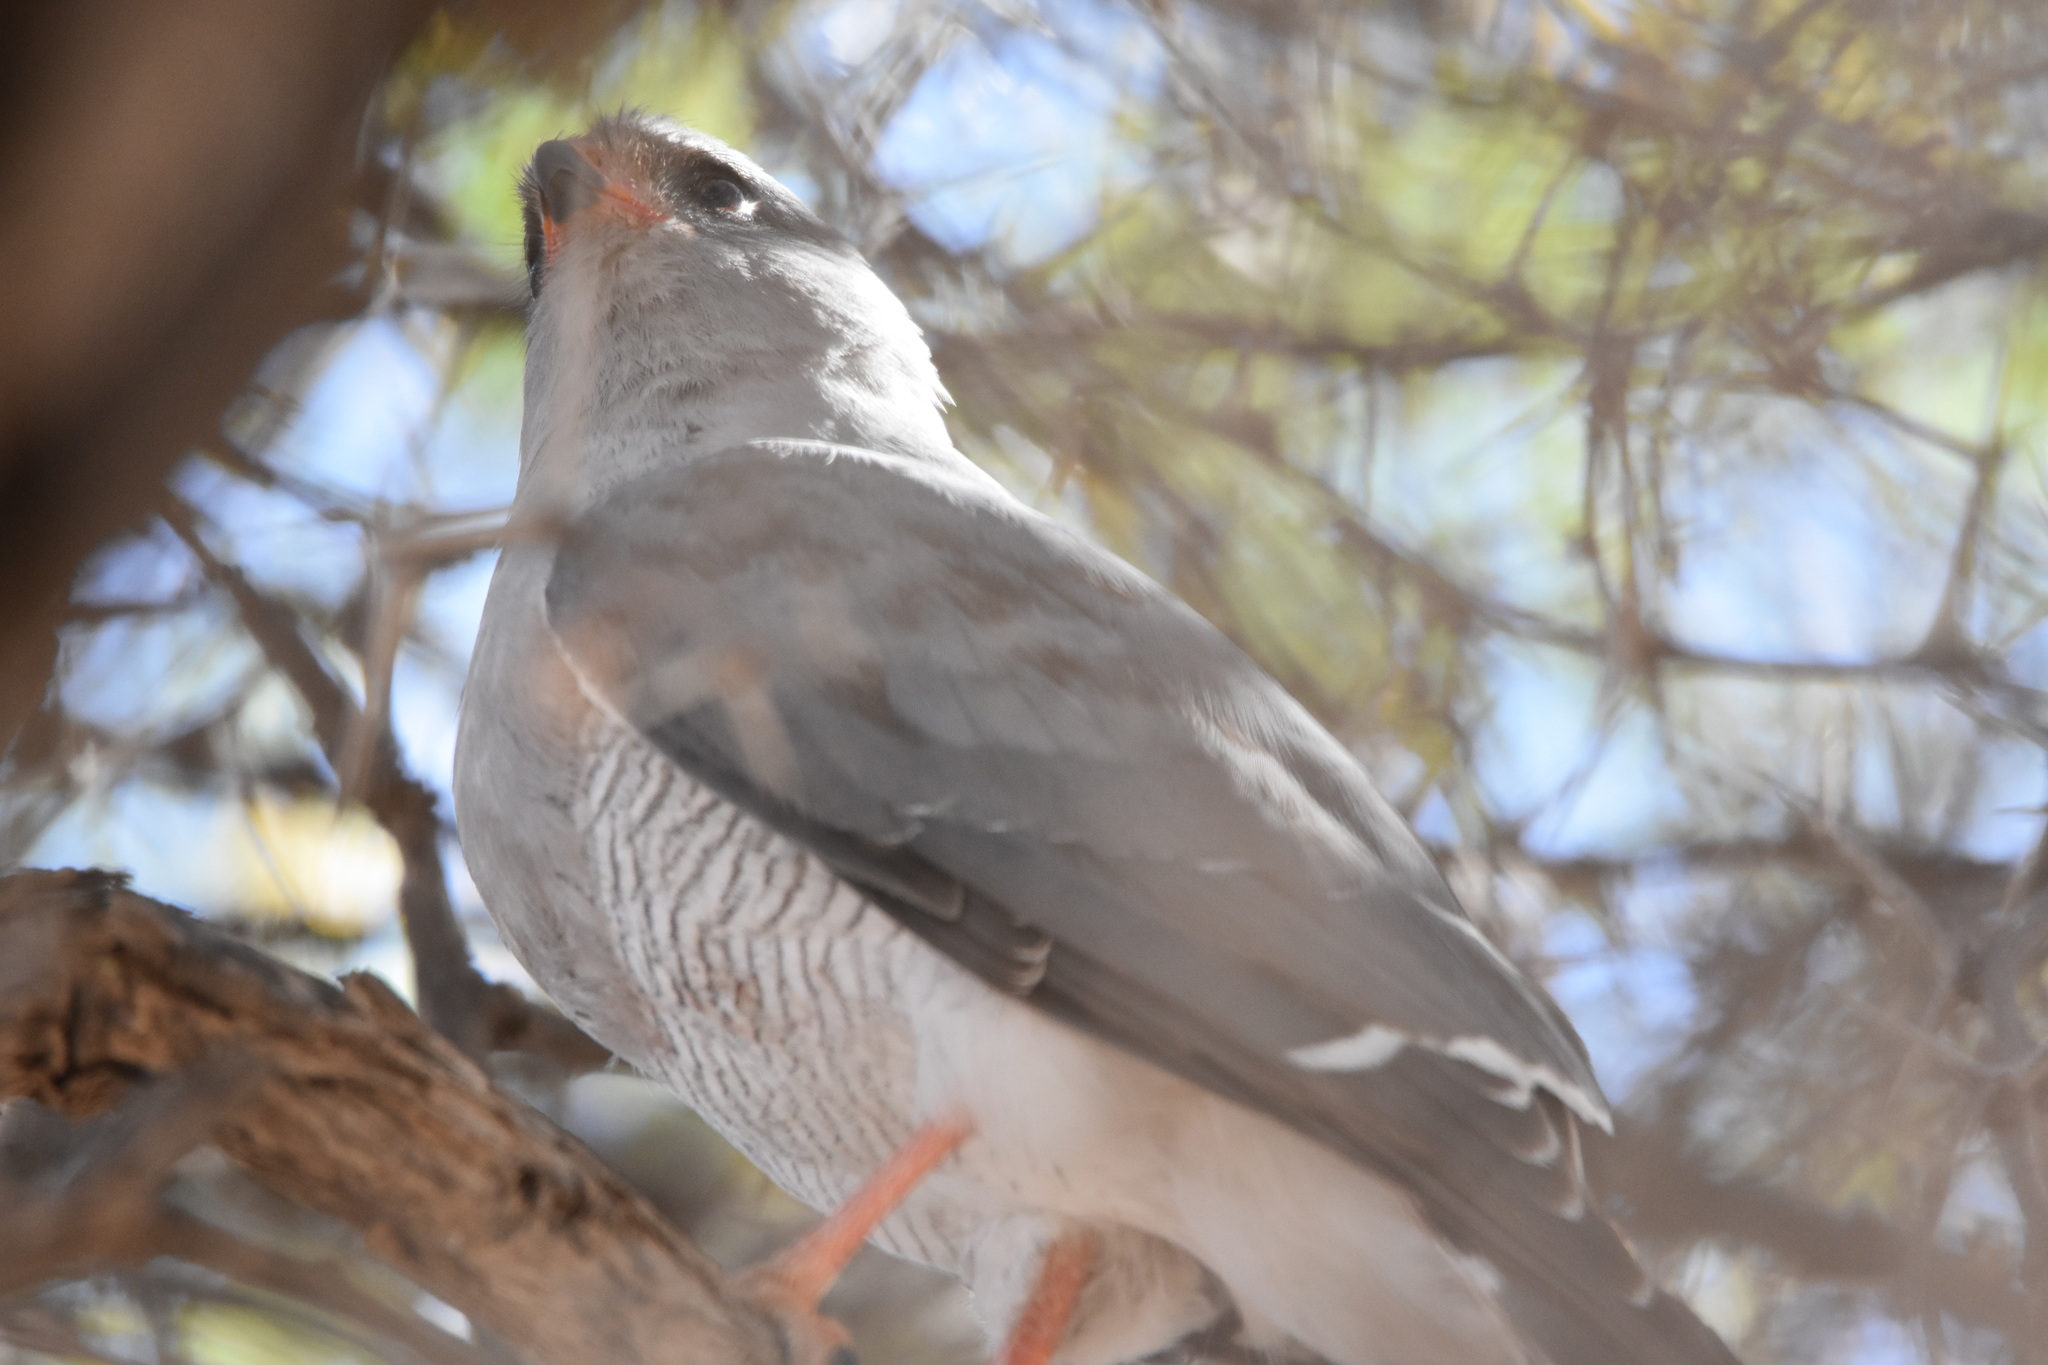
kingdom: Animalia
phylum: Chordata
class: Aves
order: Accipitriformes
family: Accipitridae
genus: Micronisus
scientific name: Micronisus gabar
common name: Gabar goshawk
